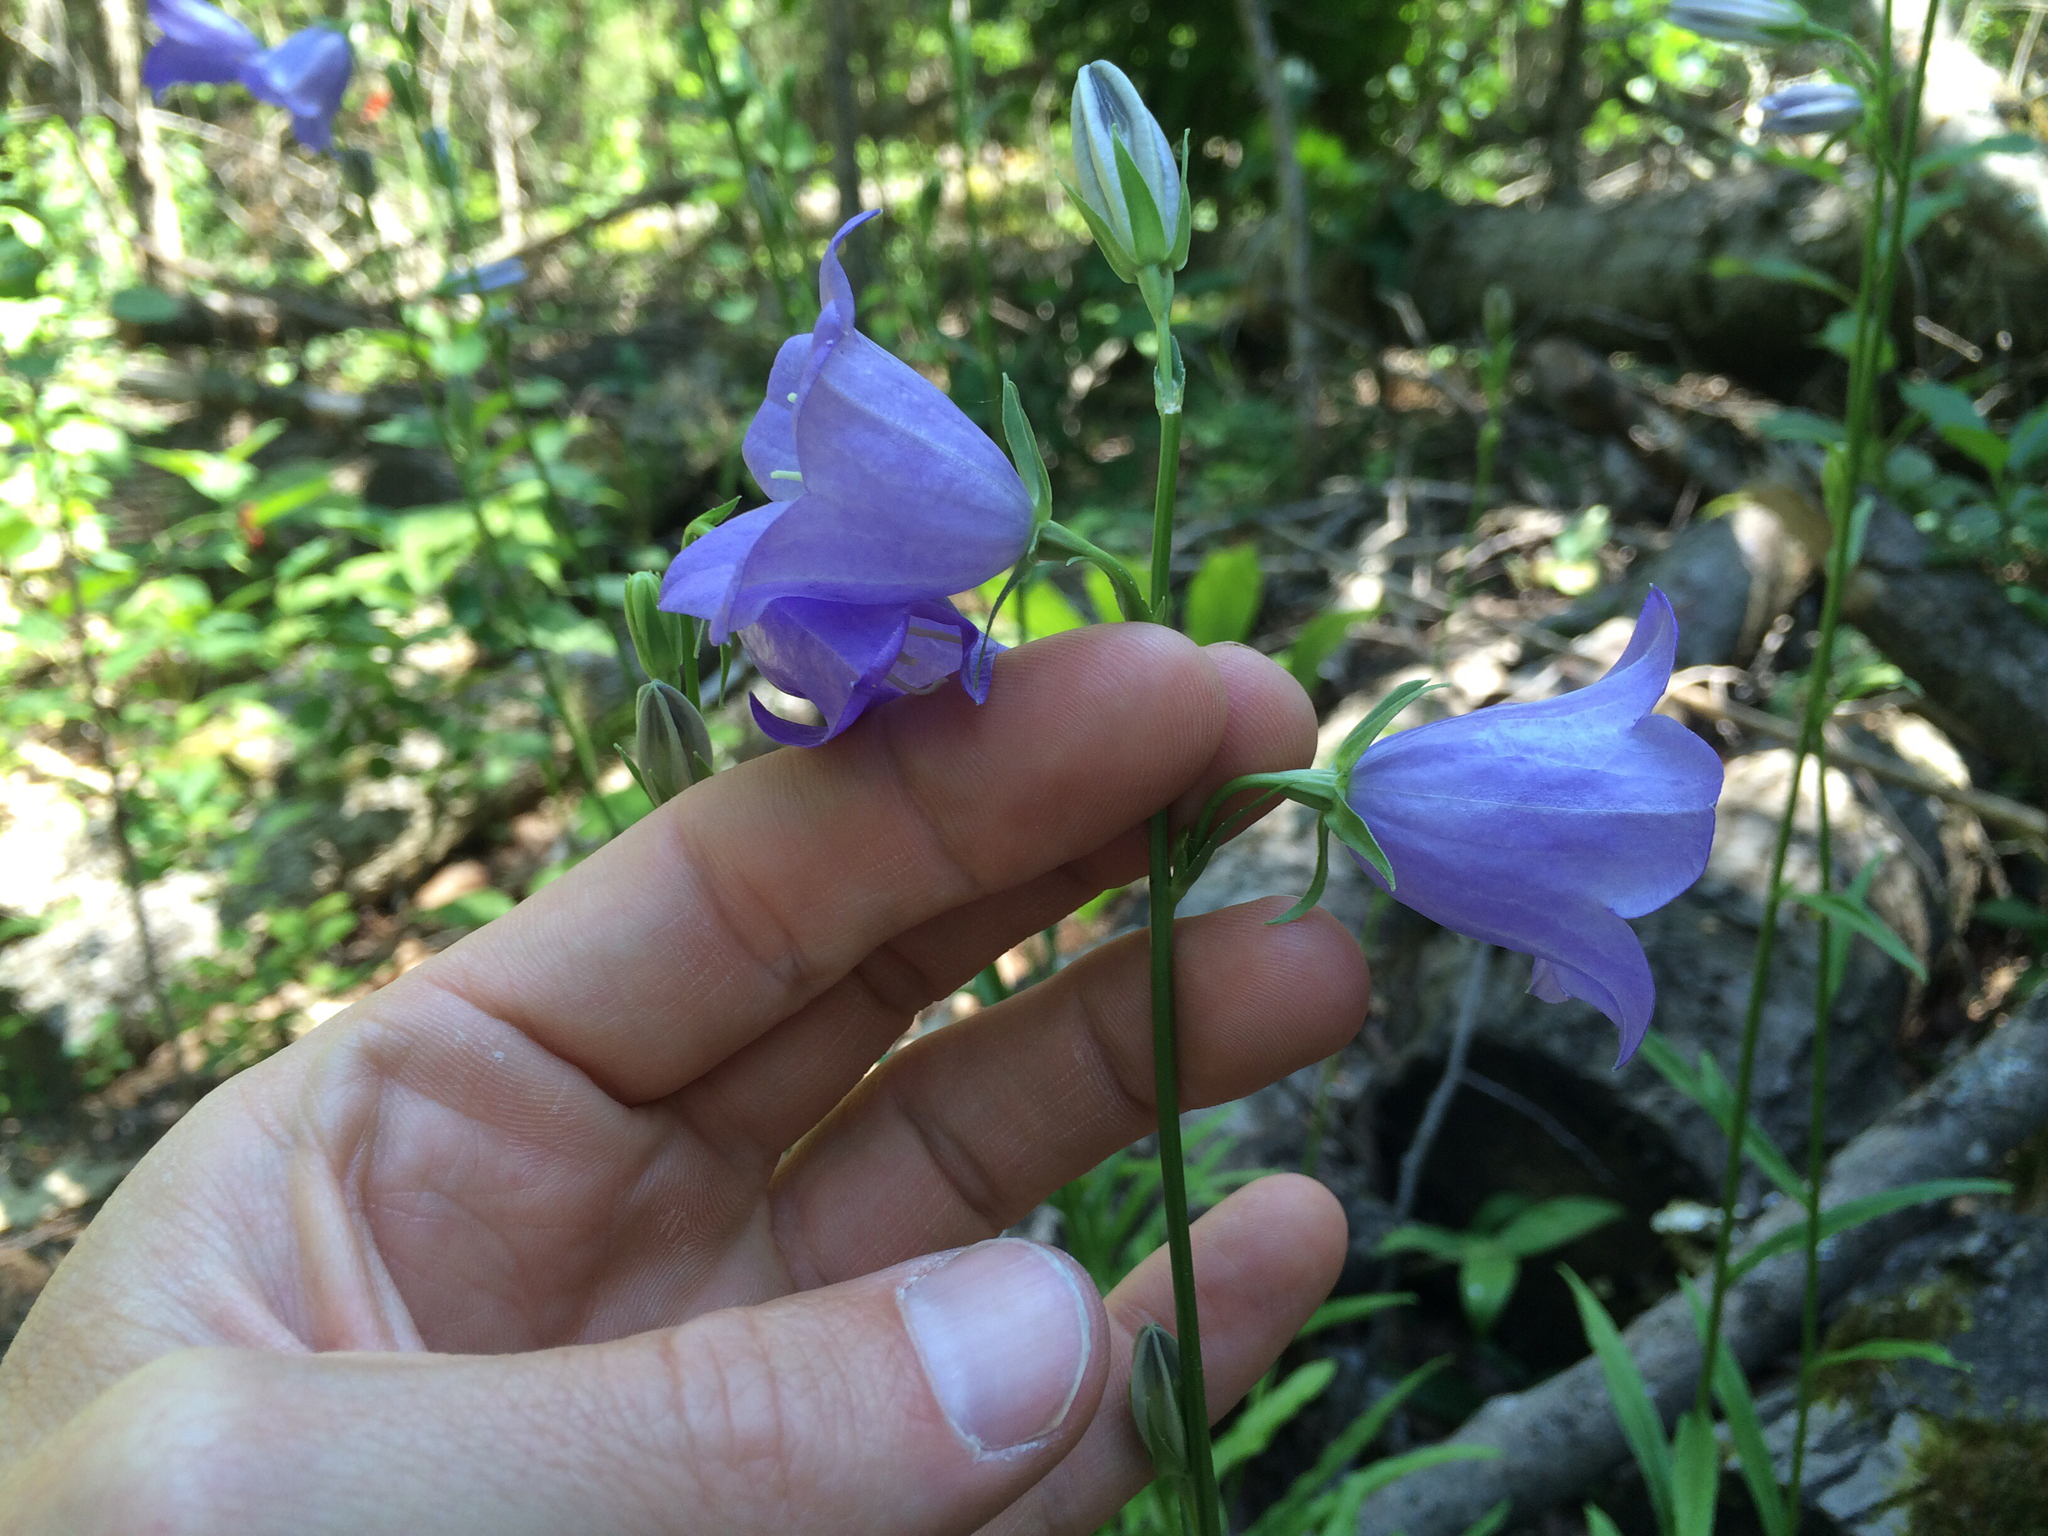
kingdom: Plantae
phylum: Tracheophyta
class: Magnoliopsida
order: Asterales
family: Campanulaceae
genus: Campanula
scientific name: Campanula persicifolia
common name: Peach-leaved bellflower
